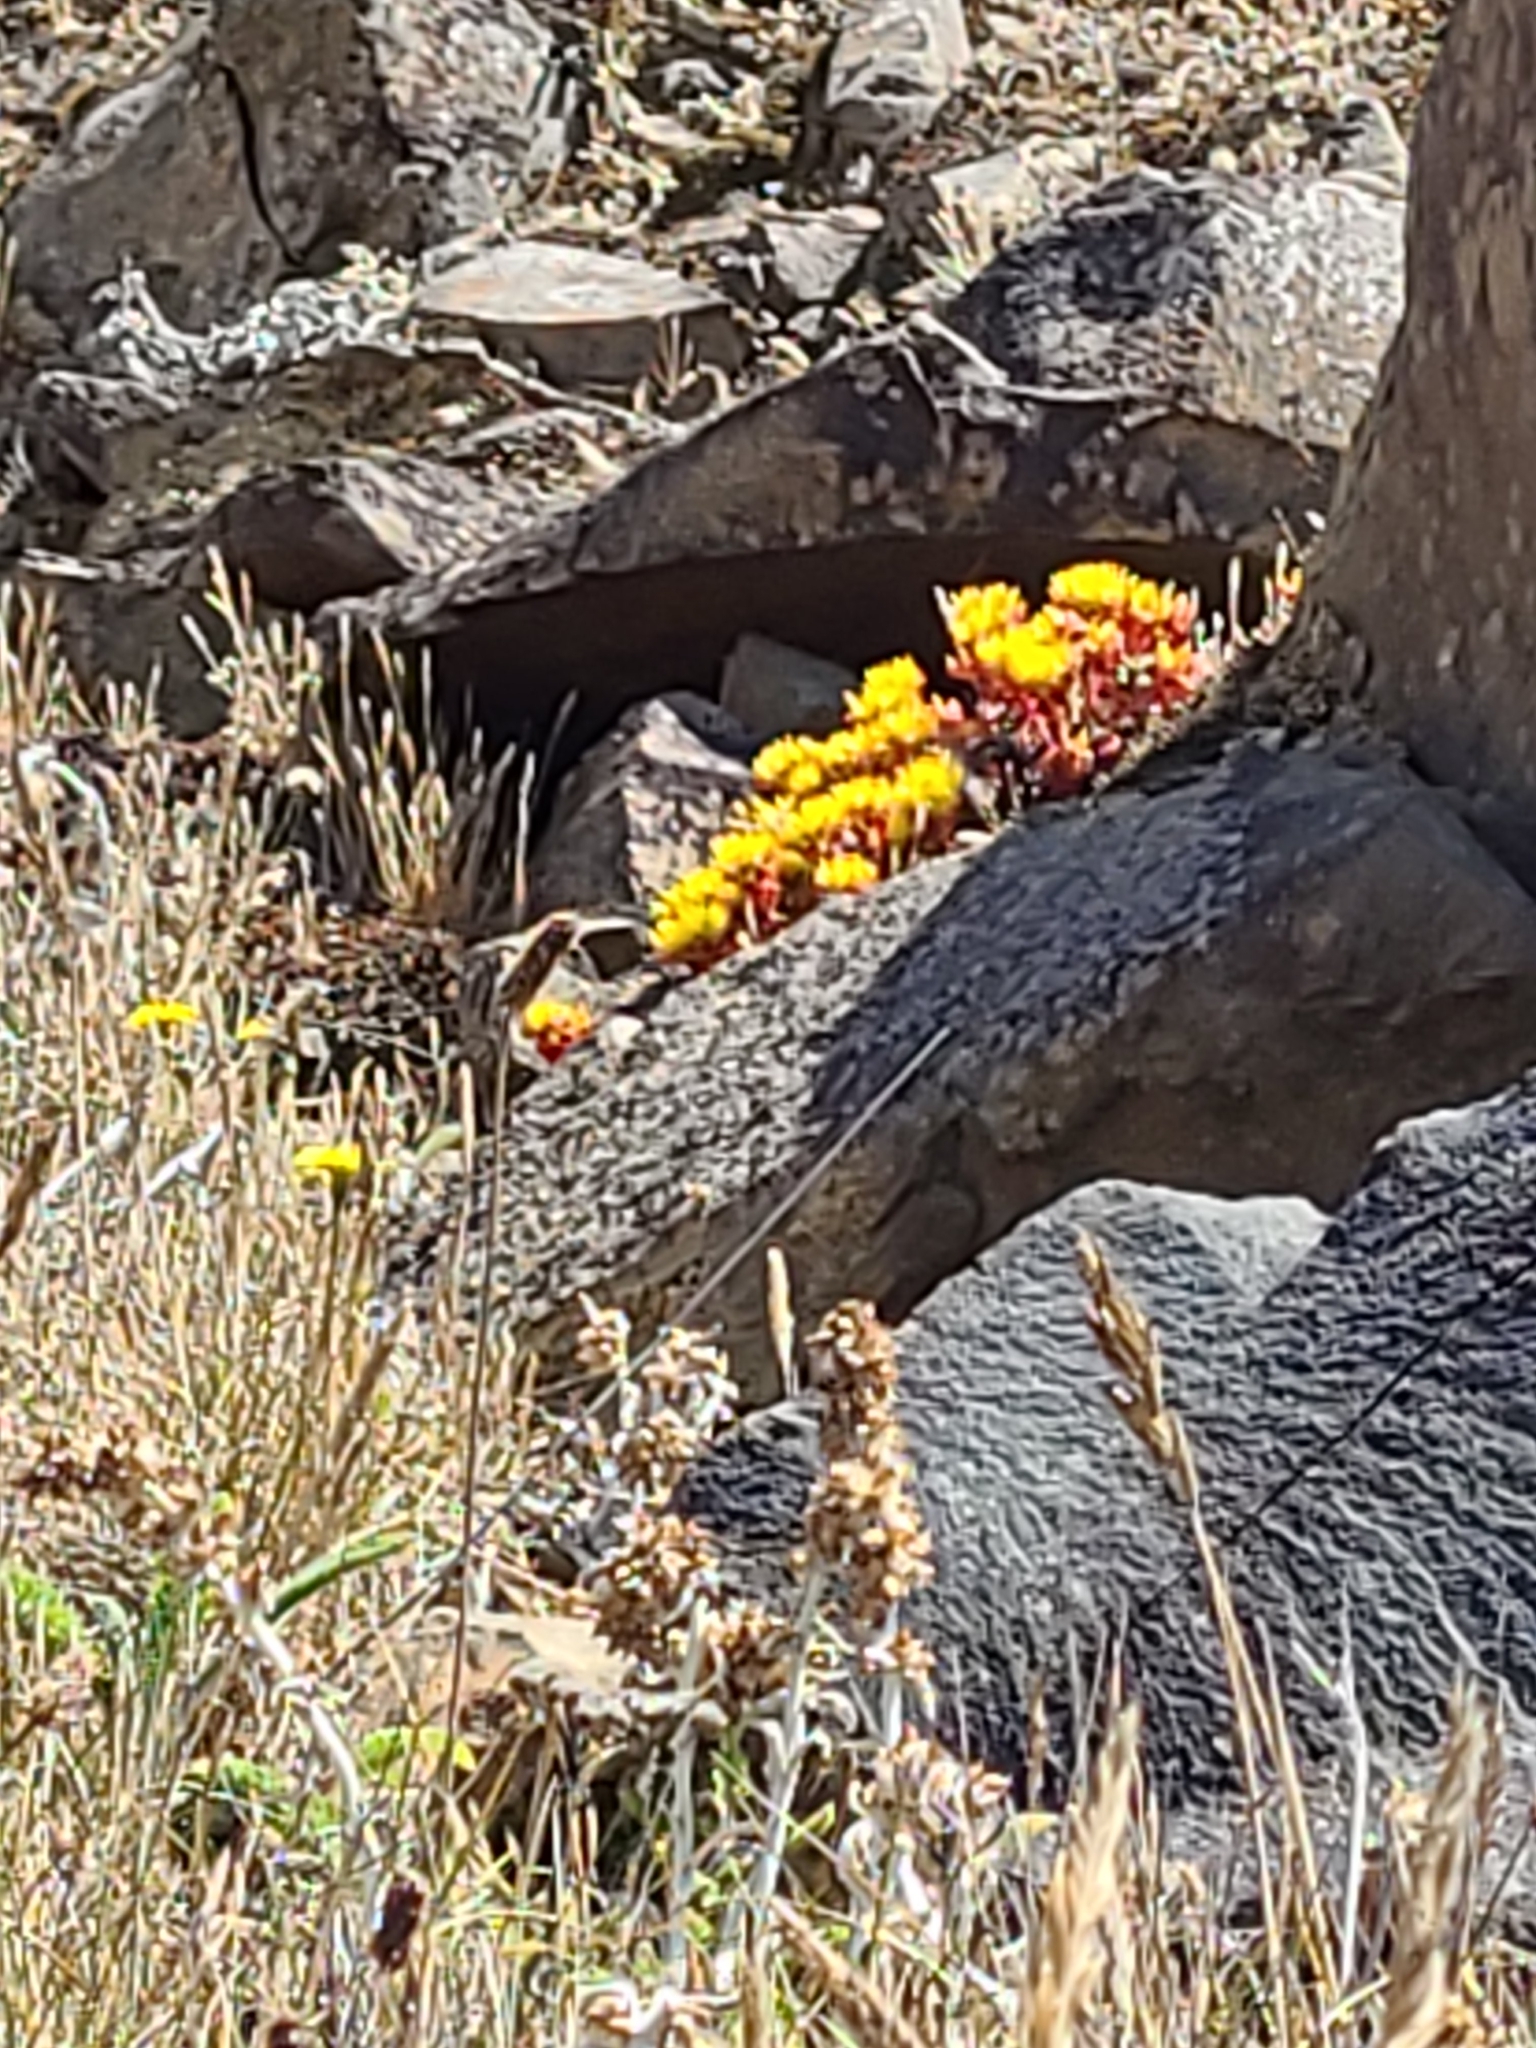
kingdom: Plantae
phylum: Tracheophyta
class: Magnoliopsida
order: Saxifragales
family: Crassulaceae
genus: Sedum
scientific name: Sedum oreganum
